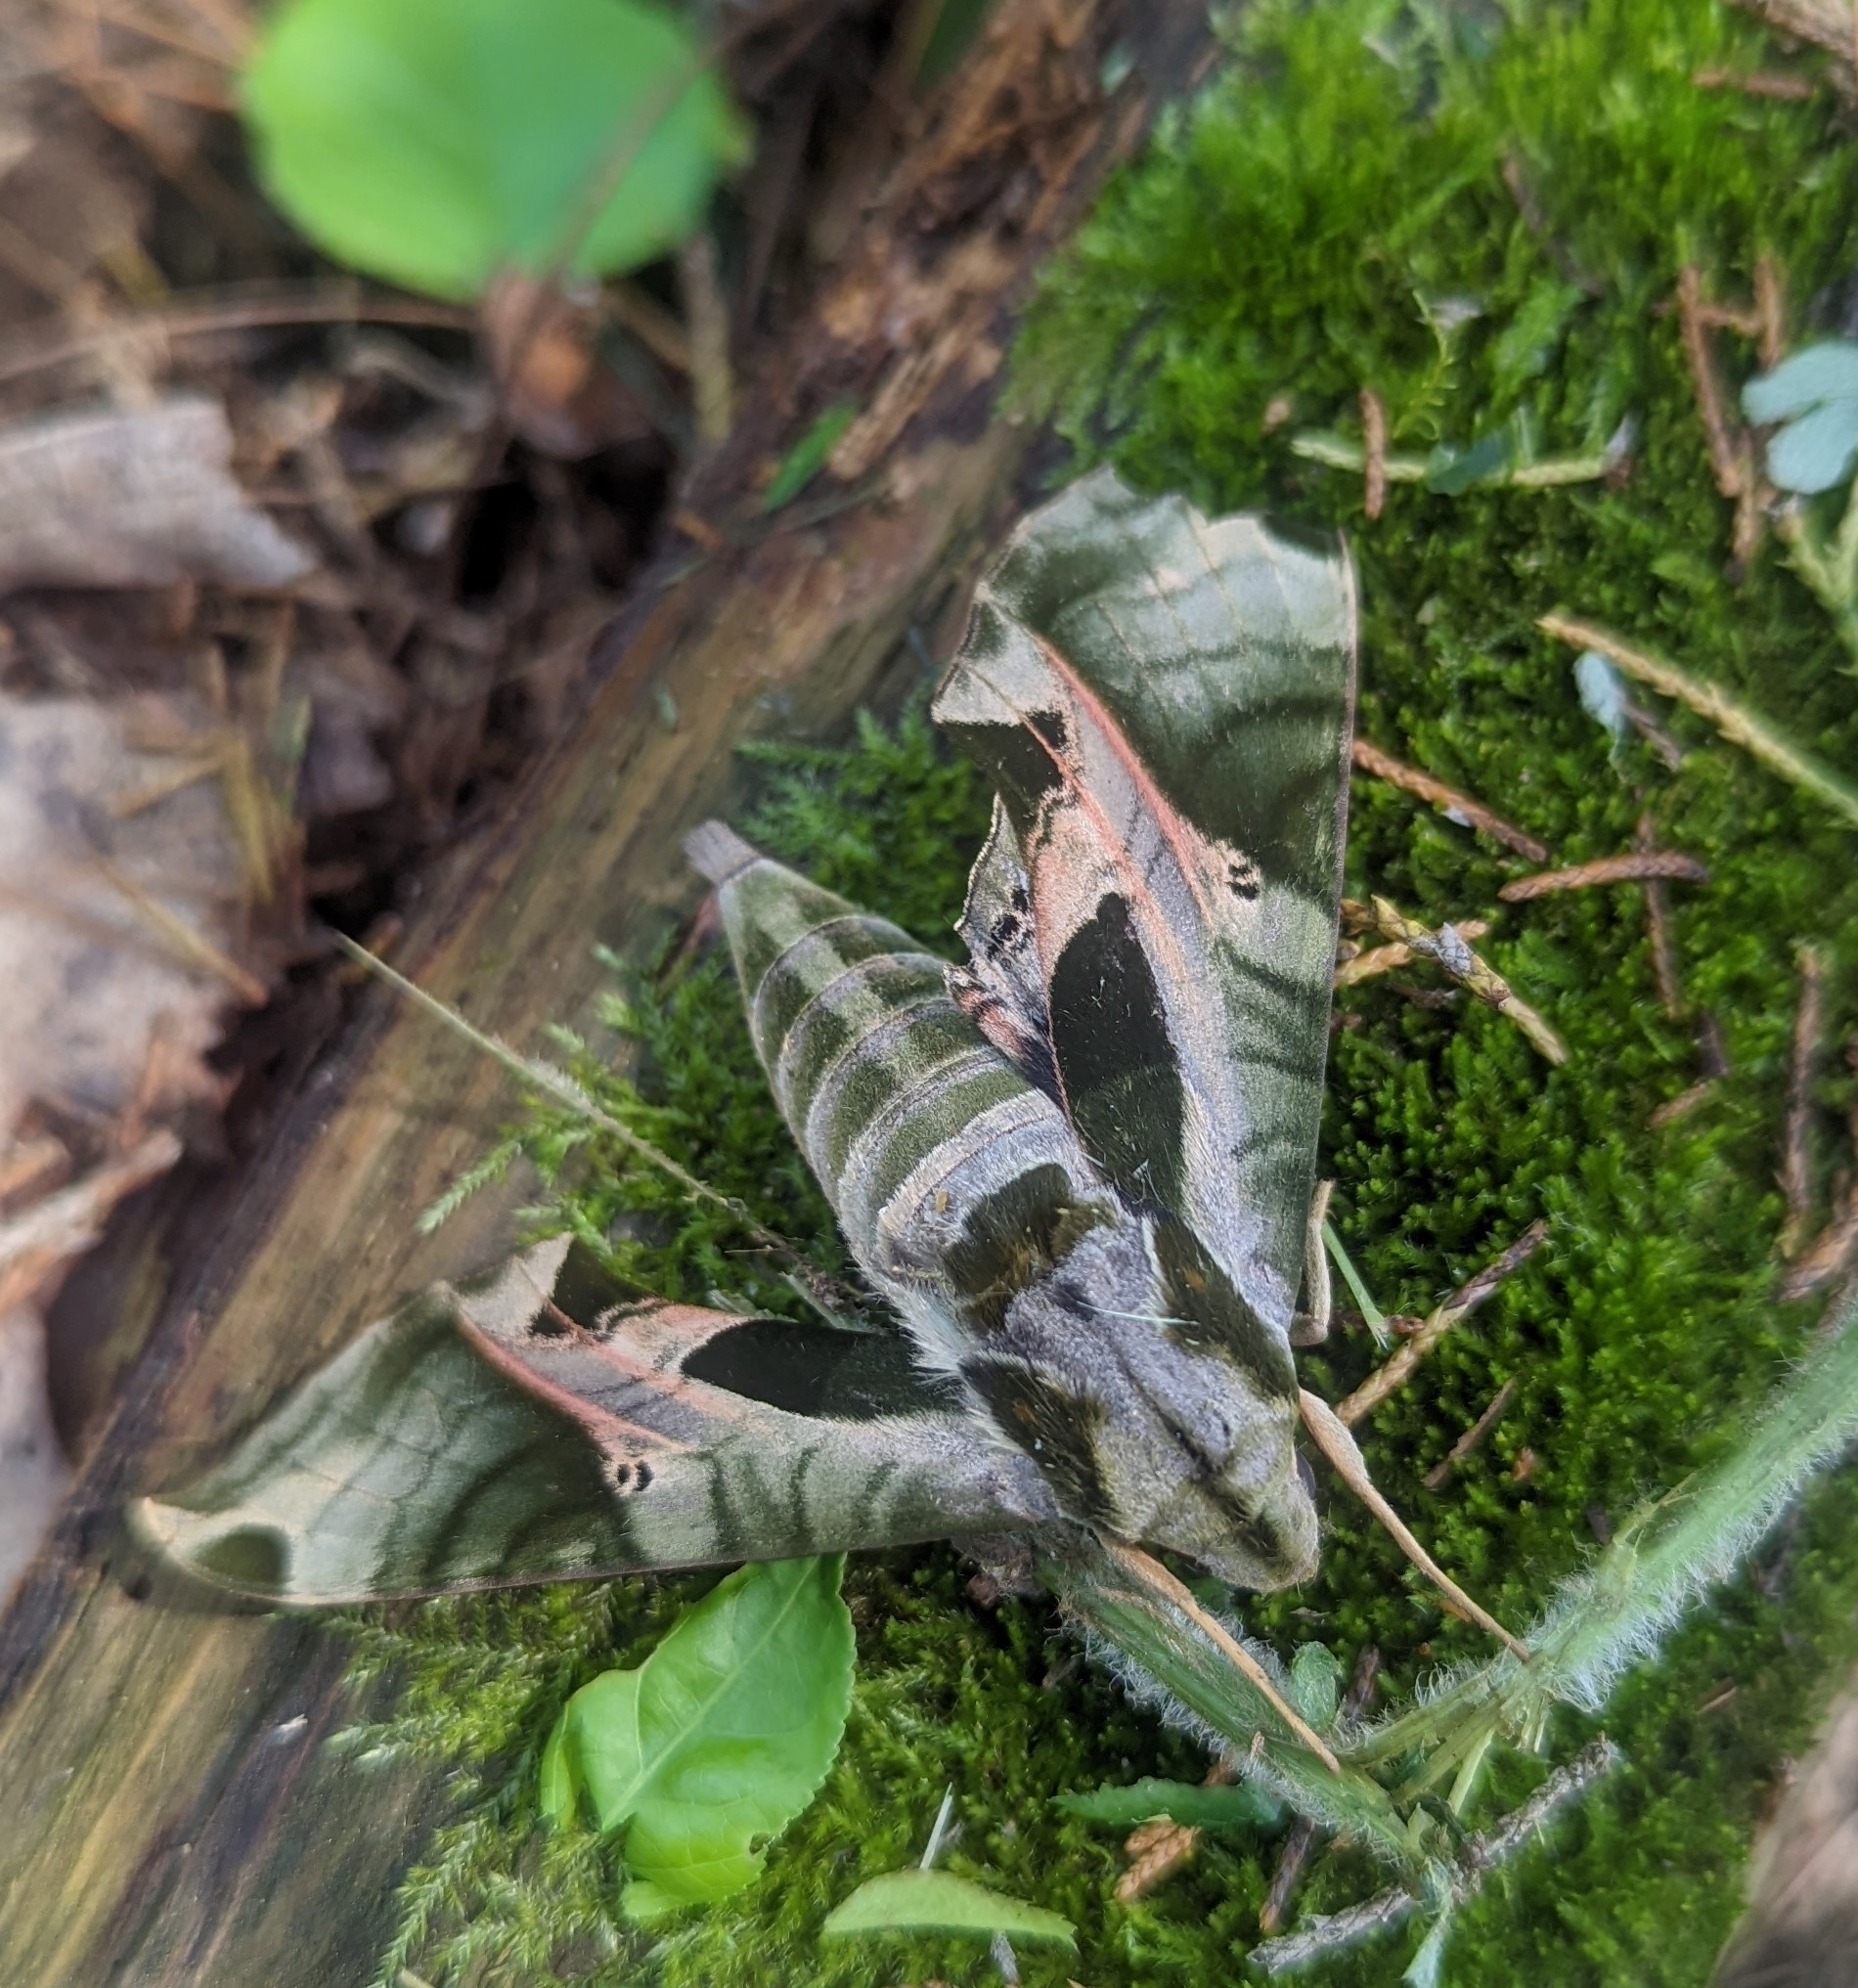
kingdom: Animalia
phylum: Arthropoda
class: Insecta
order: Lepidoptera
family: Sphingidae
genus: Eumorpha
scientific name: Eumorpha pandorus
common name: Pandora sphinx
